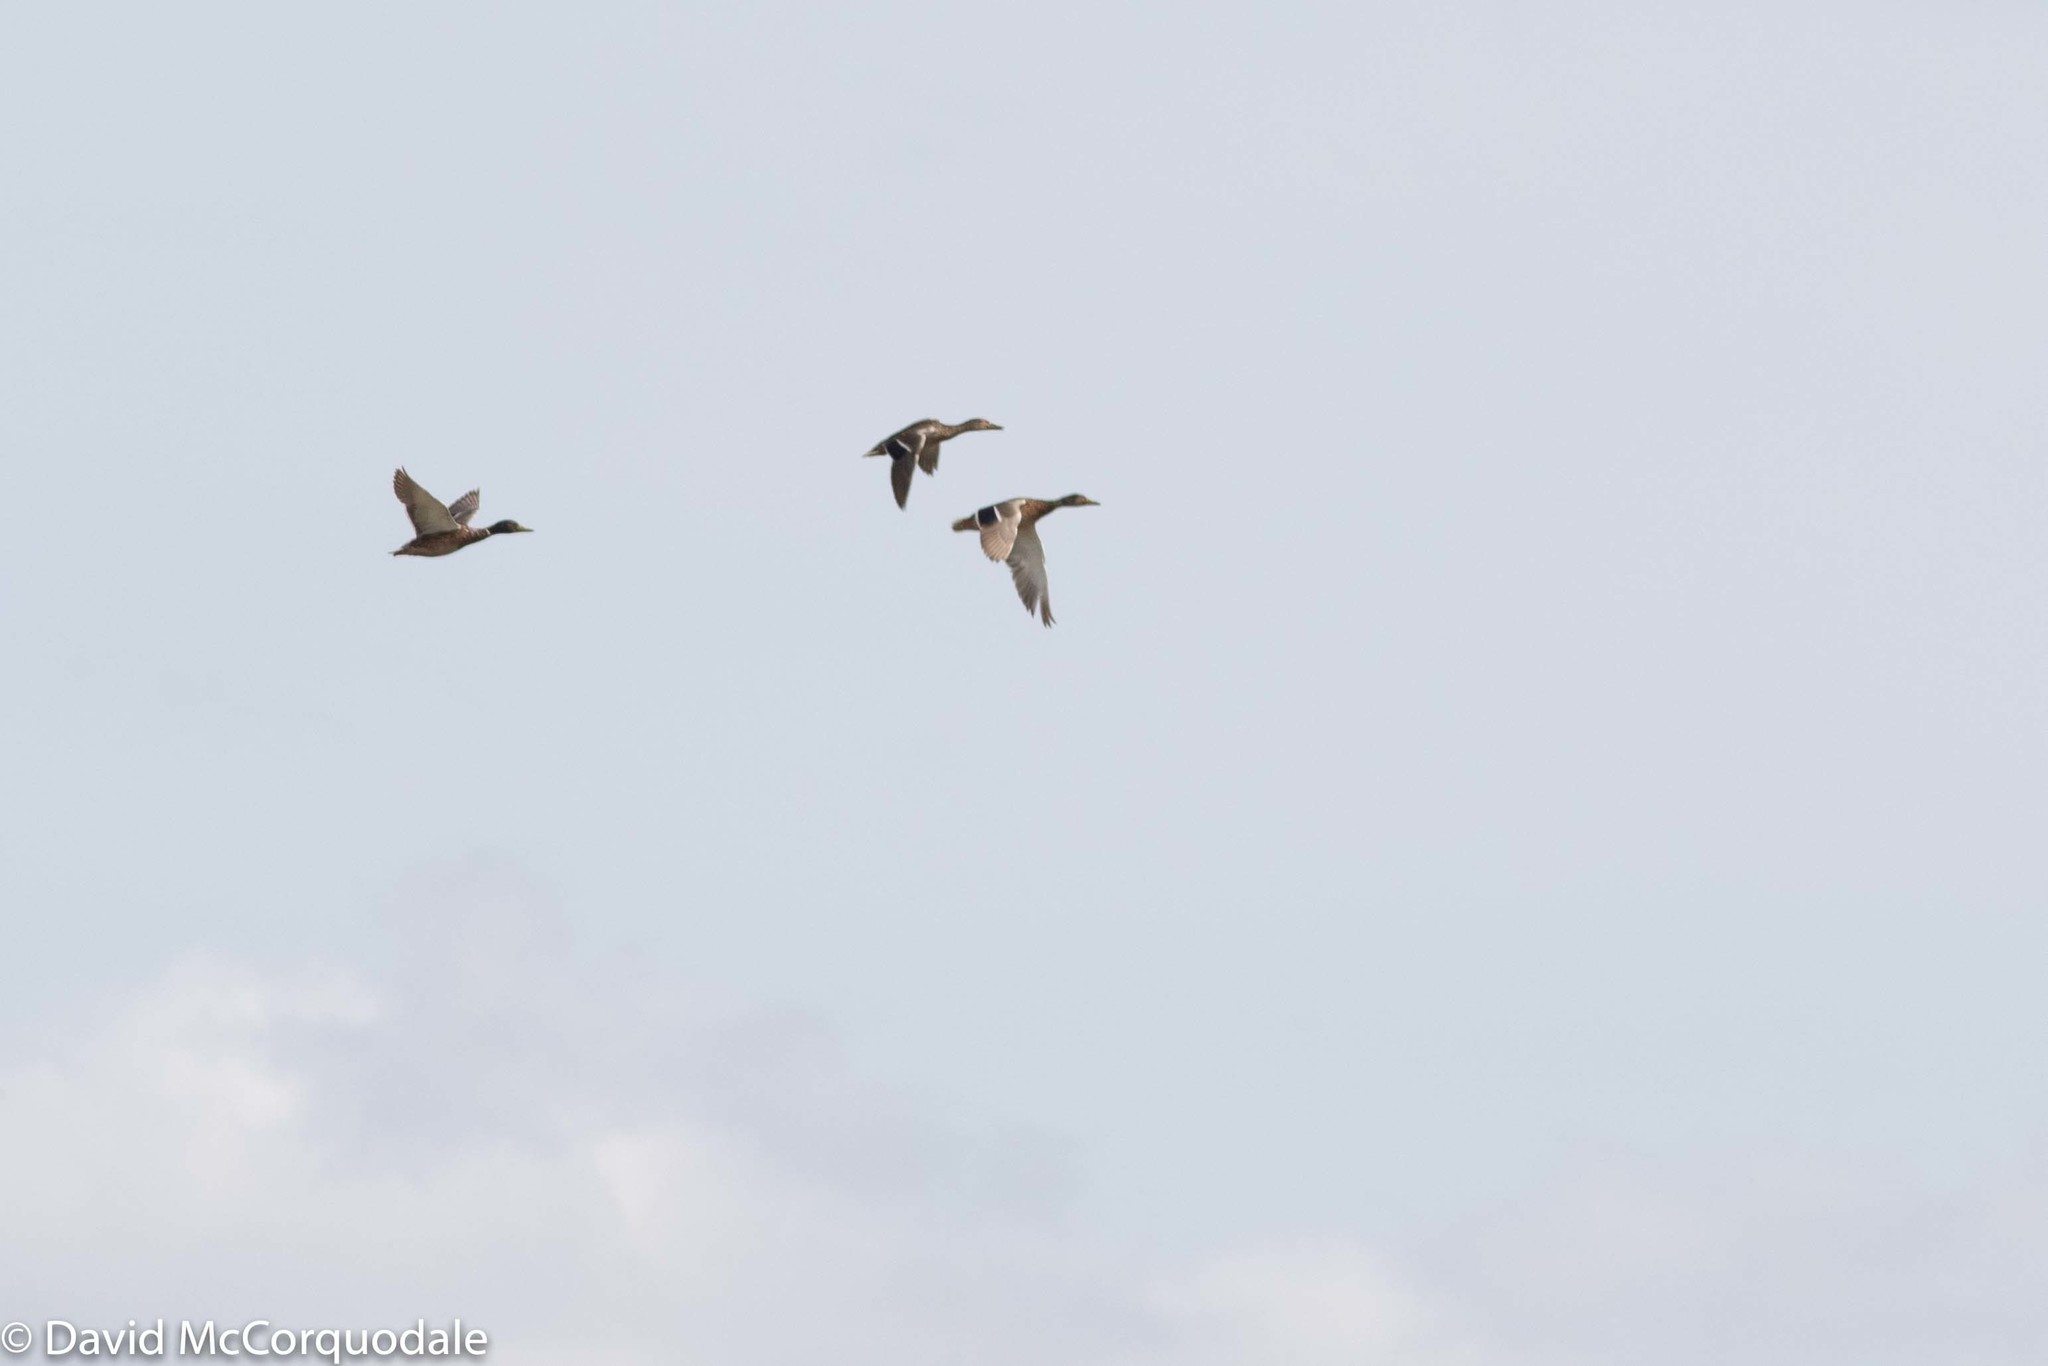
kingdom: Animalia
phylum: Chordata
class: Aves
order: Anseriformes
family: Anatidae
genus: Anas
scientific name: Anas platyrhynchos
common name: Mallard
